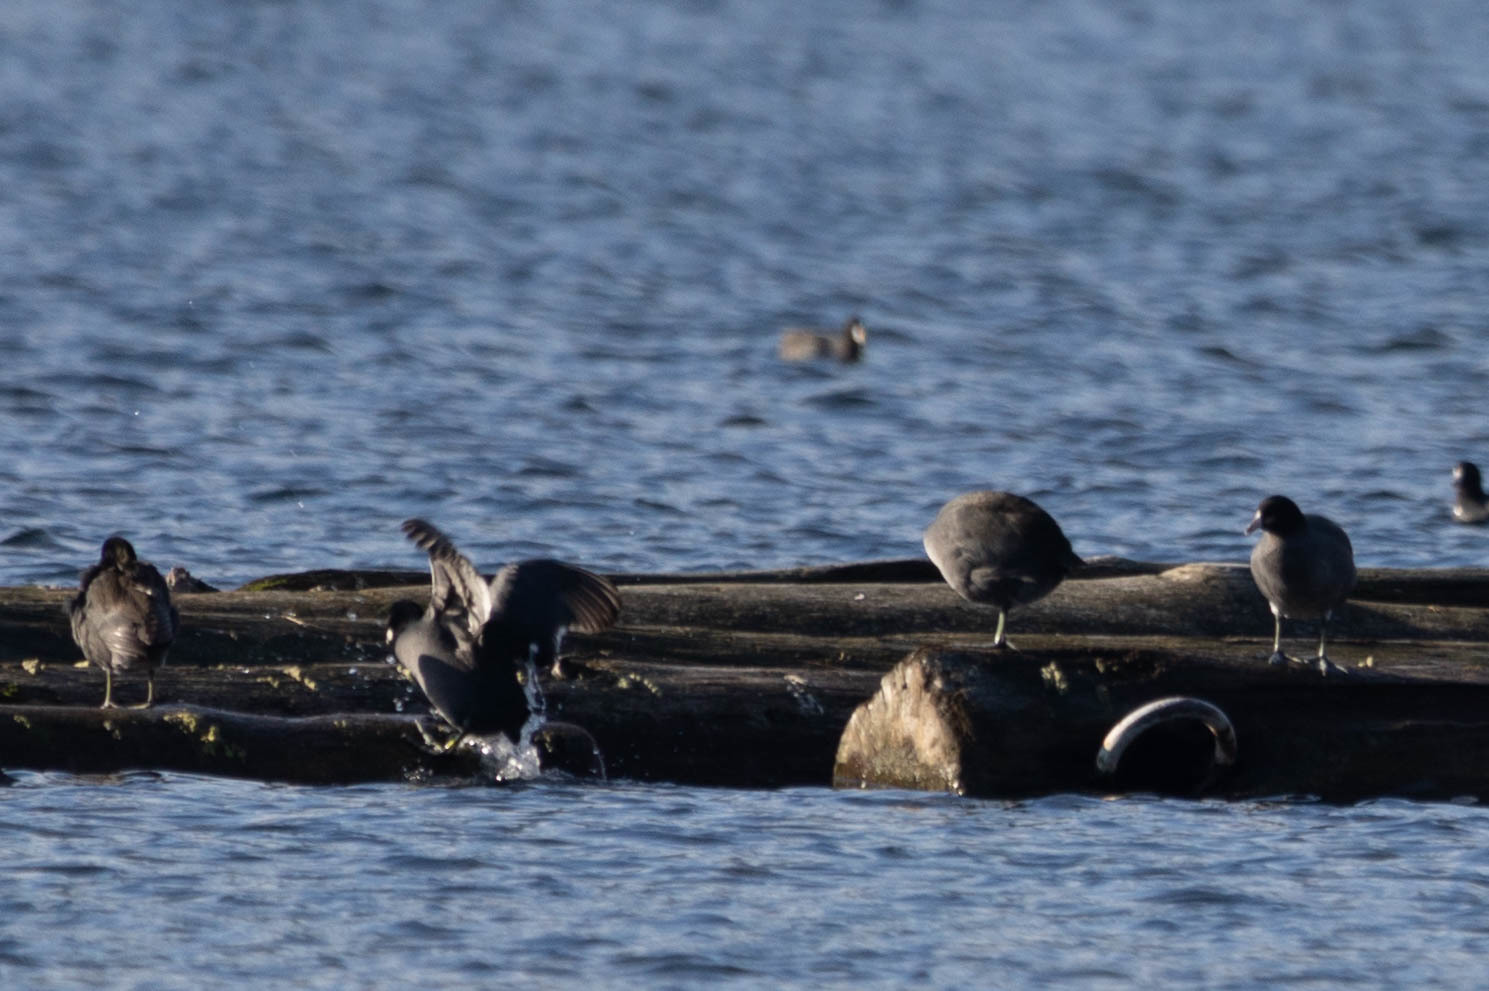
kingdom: Animalia
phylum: Chordata
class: Aves
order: Gruiformes
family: Rallidae
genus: Fulica
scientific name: Fulica americana
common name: American coot
